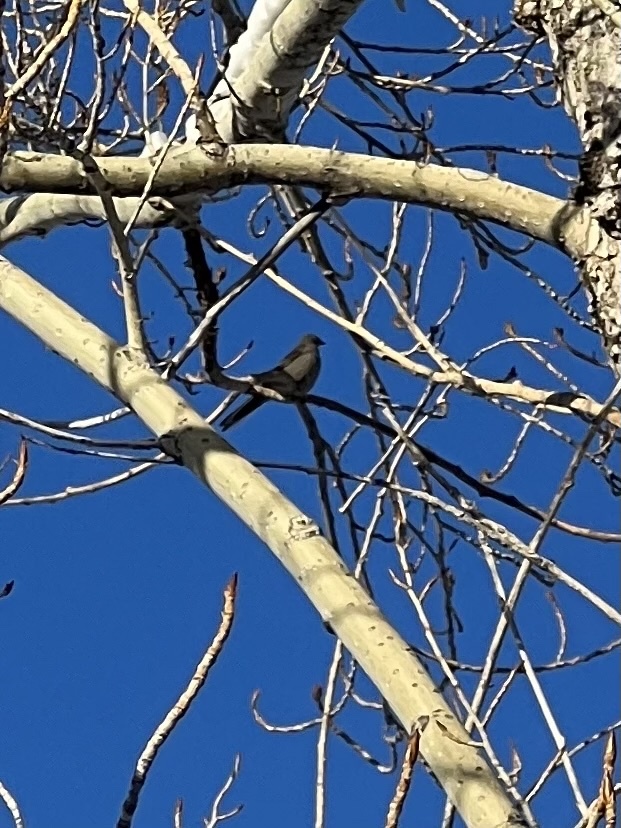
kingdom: Animalia
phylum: Chordata
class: Aves
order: Passeriformes
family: Turdidae
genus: Myadestes
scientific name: Myadestes townsendi
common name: Townsend's solitaire
